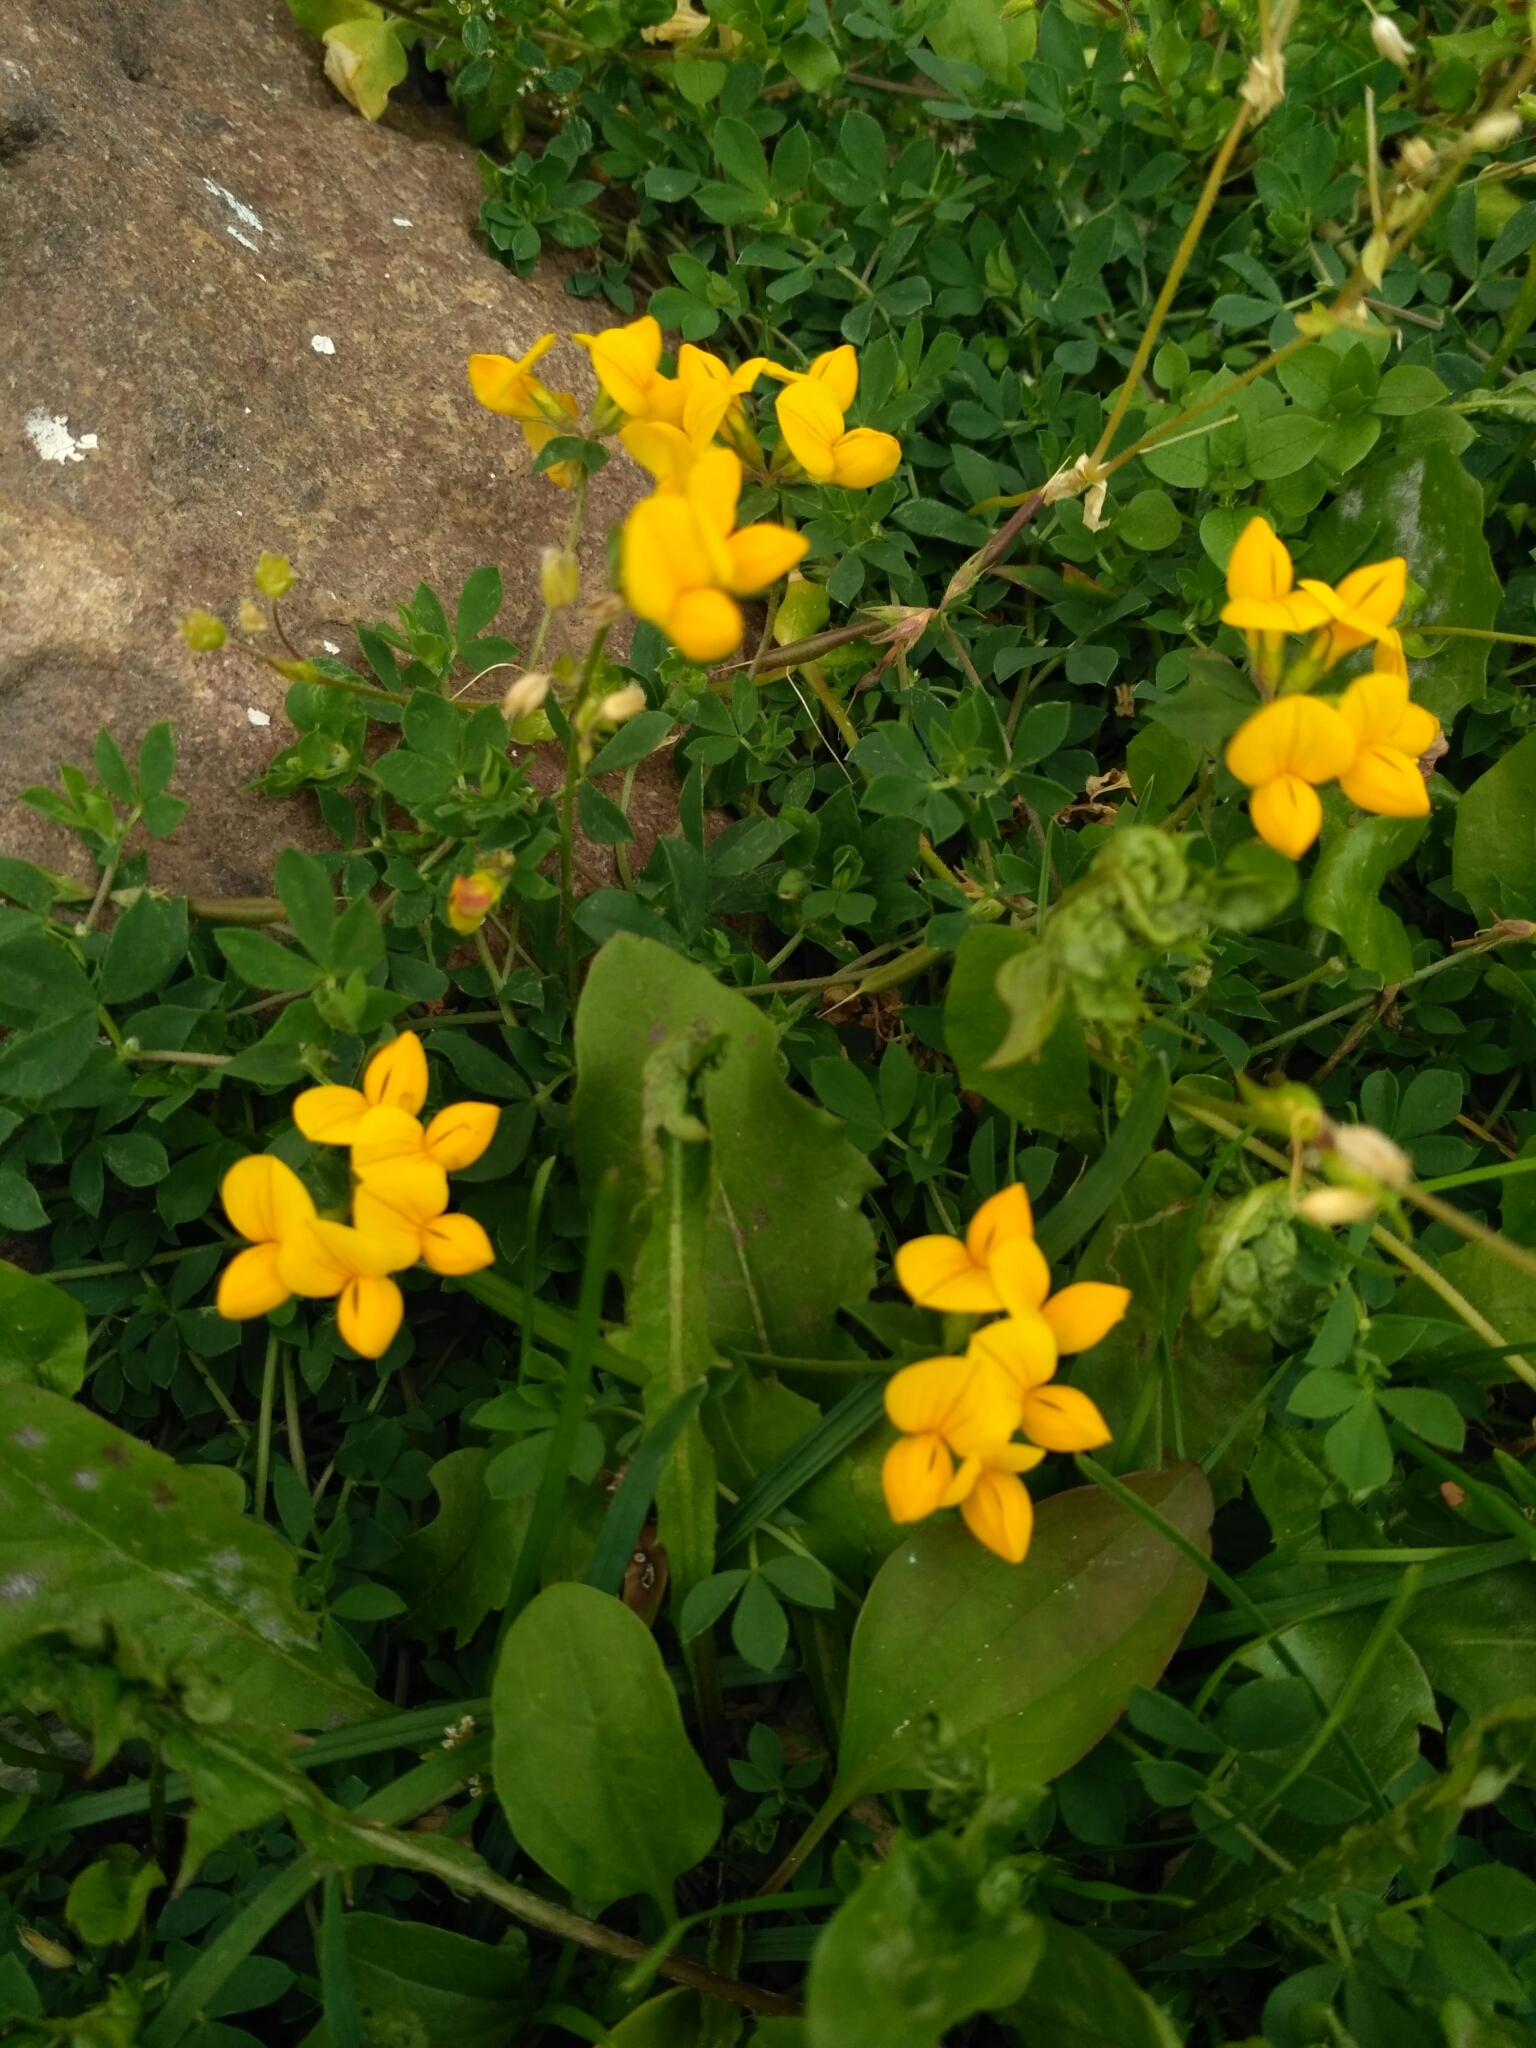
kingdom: Plantae
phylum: Tracheophyta
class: Magnoliopsida
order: Fabales
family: Fabaceae
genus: Lotus
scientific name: Lotus corniculatus
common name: Common bird's-foot-trefoil
